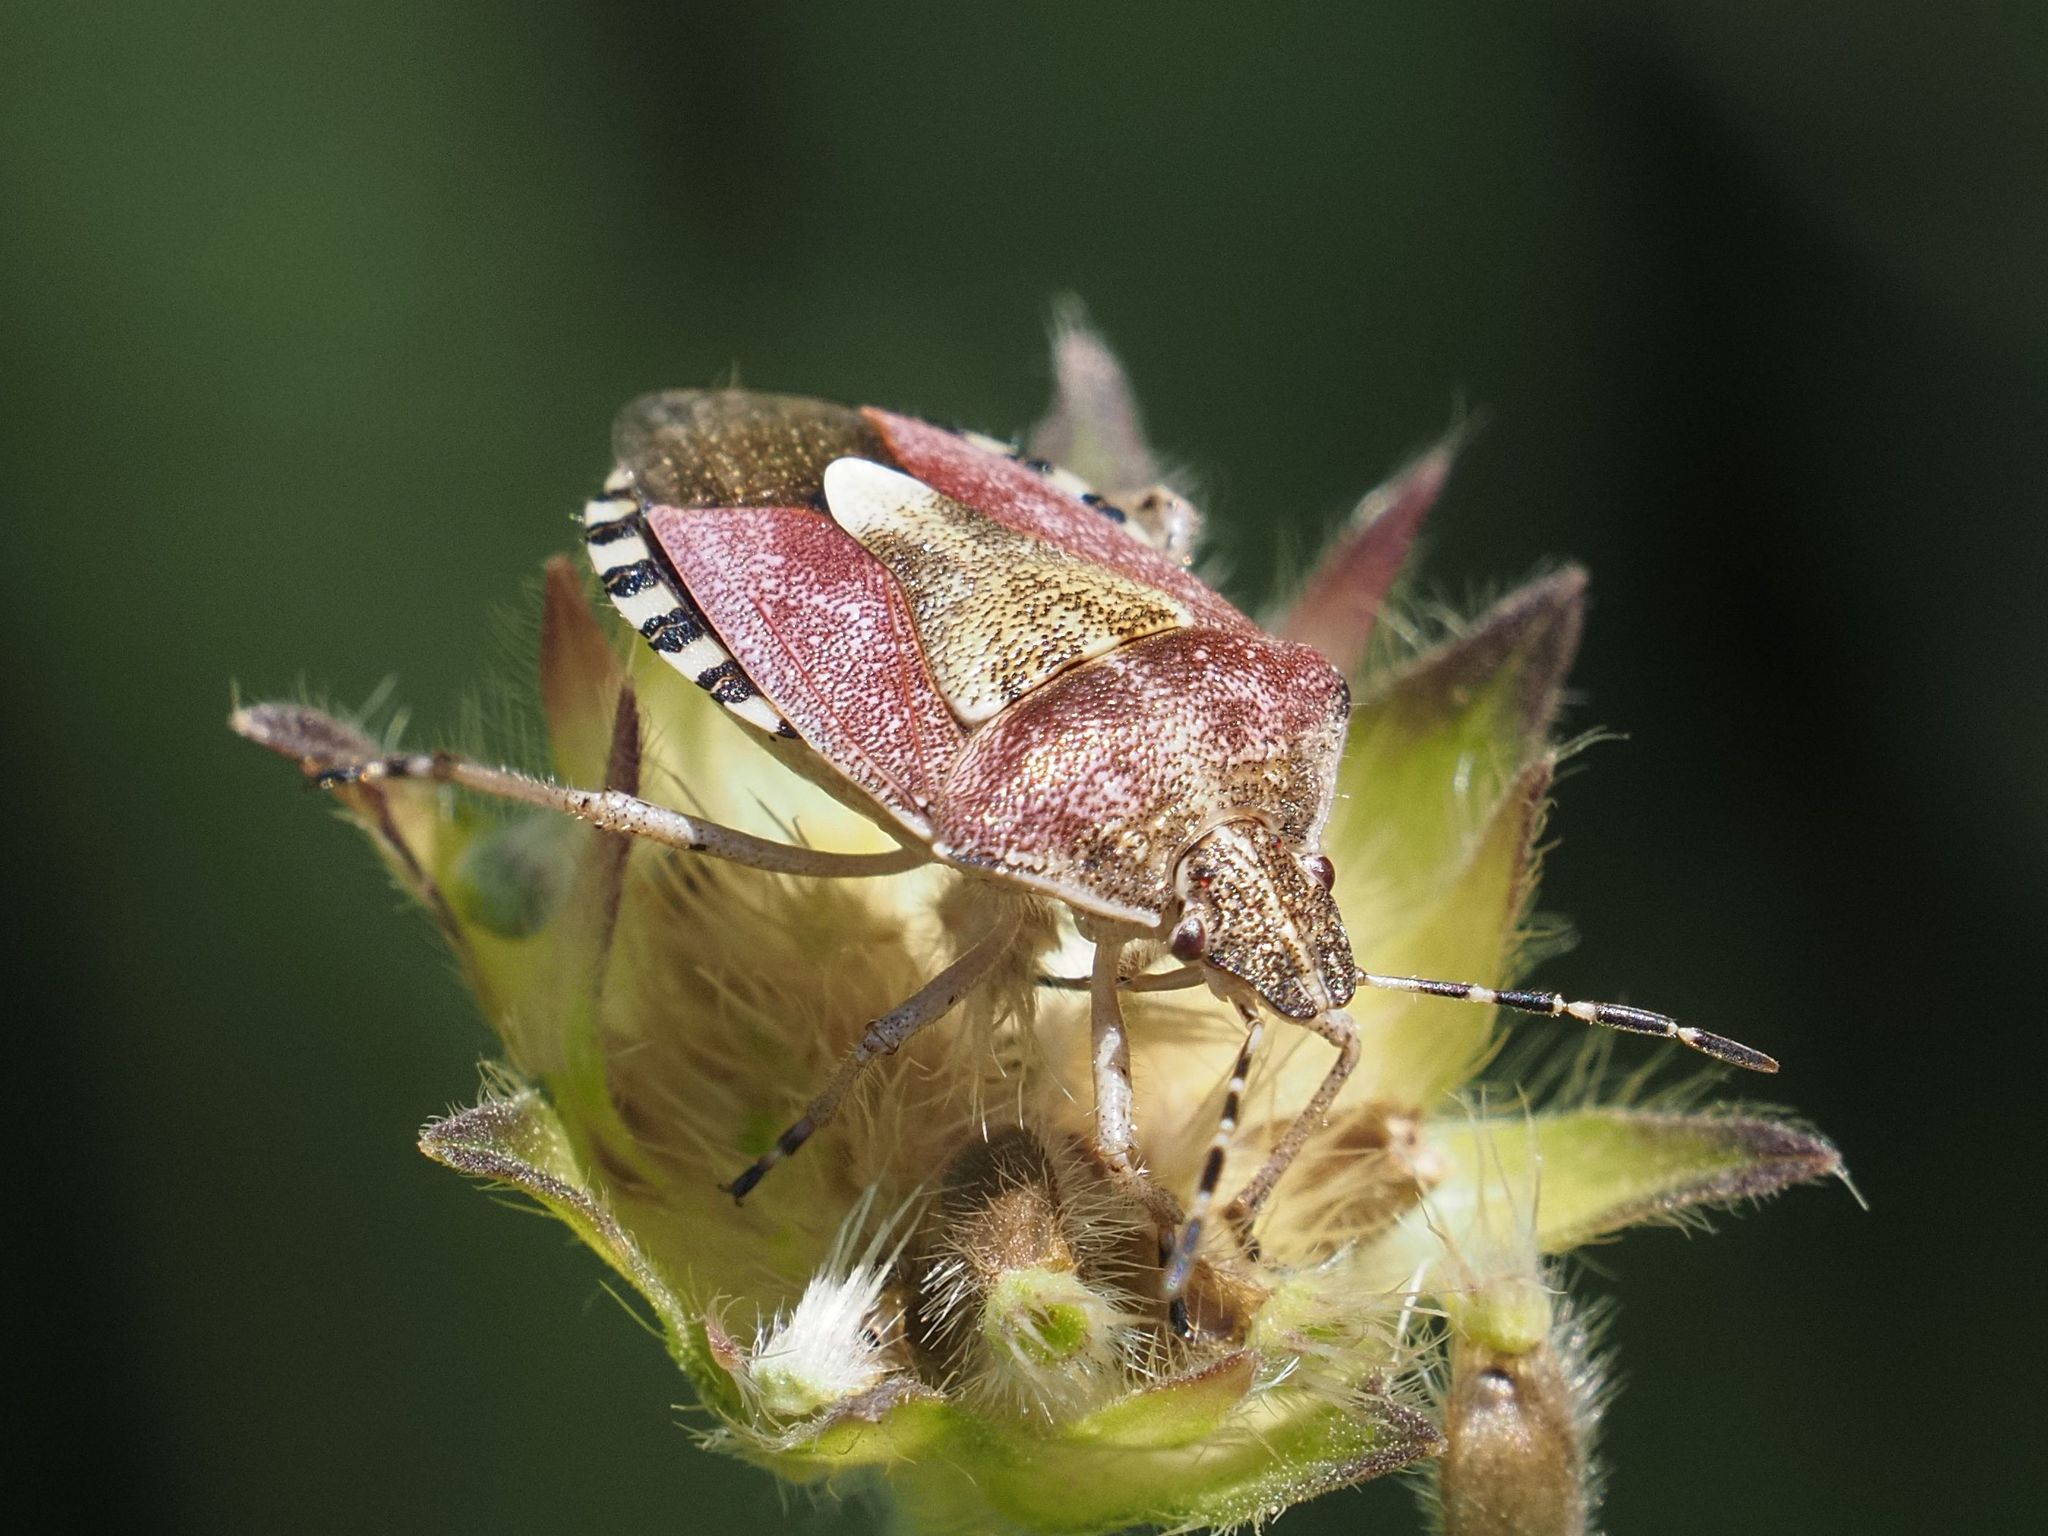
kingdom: Animalia
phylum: Arthropoda
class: Insecta
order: Hemiptera
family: Pentatomidae
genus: Dolycoris
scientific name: Dolycoris baccarum
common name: Sloe bug
